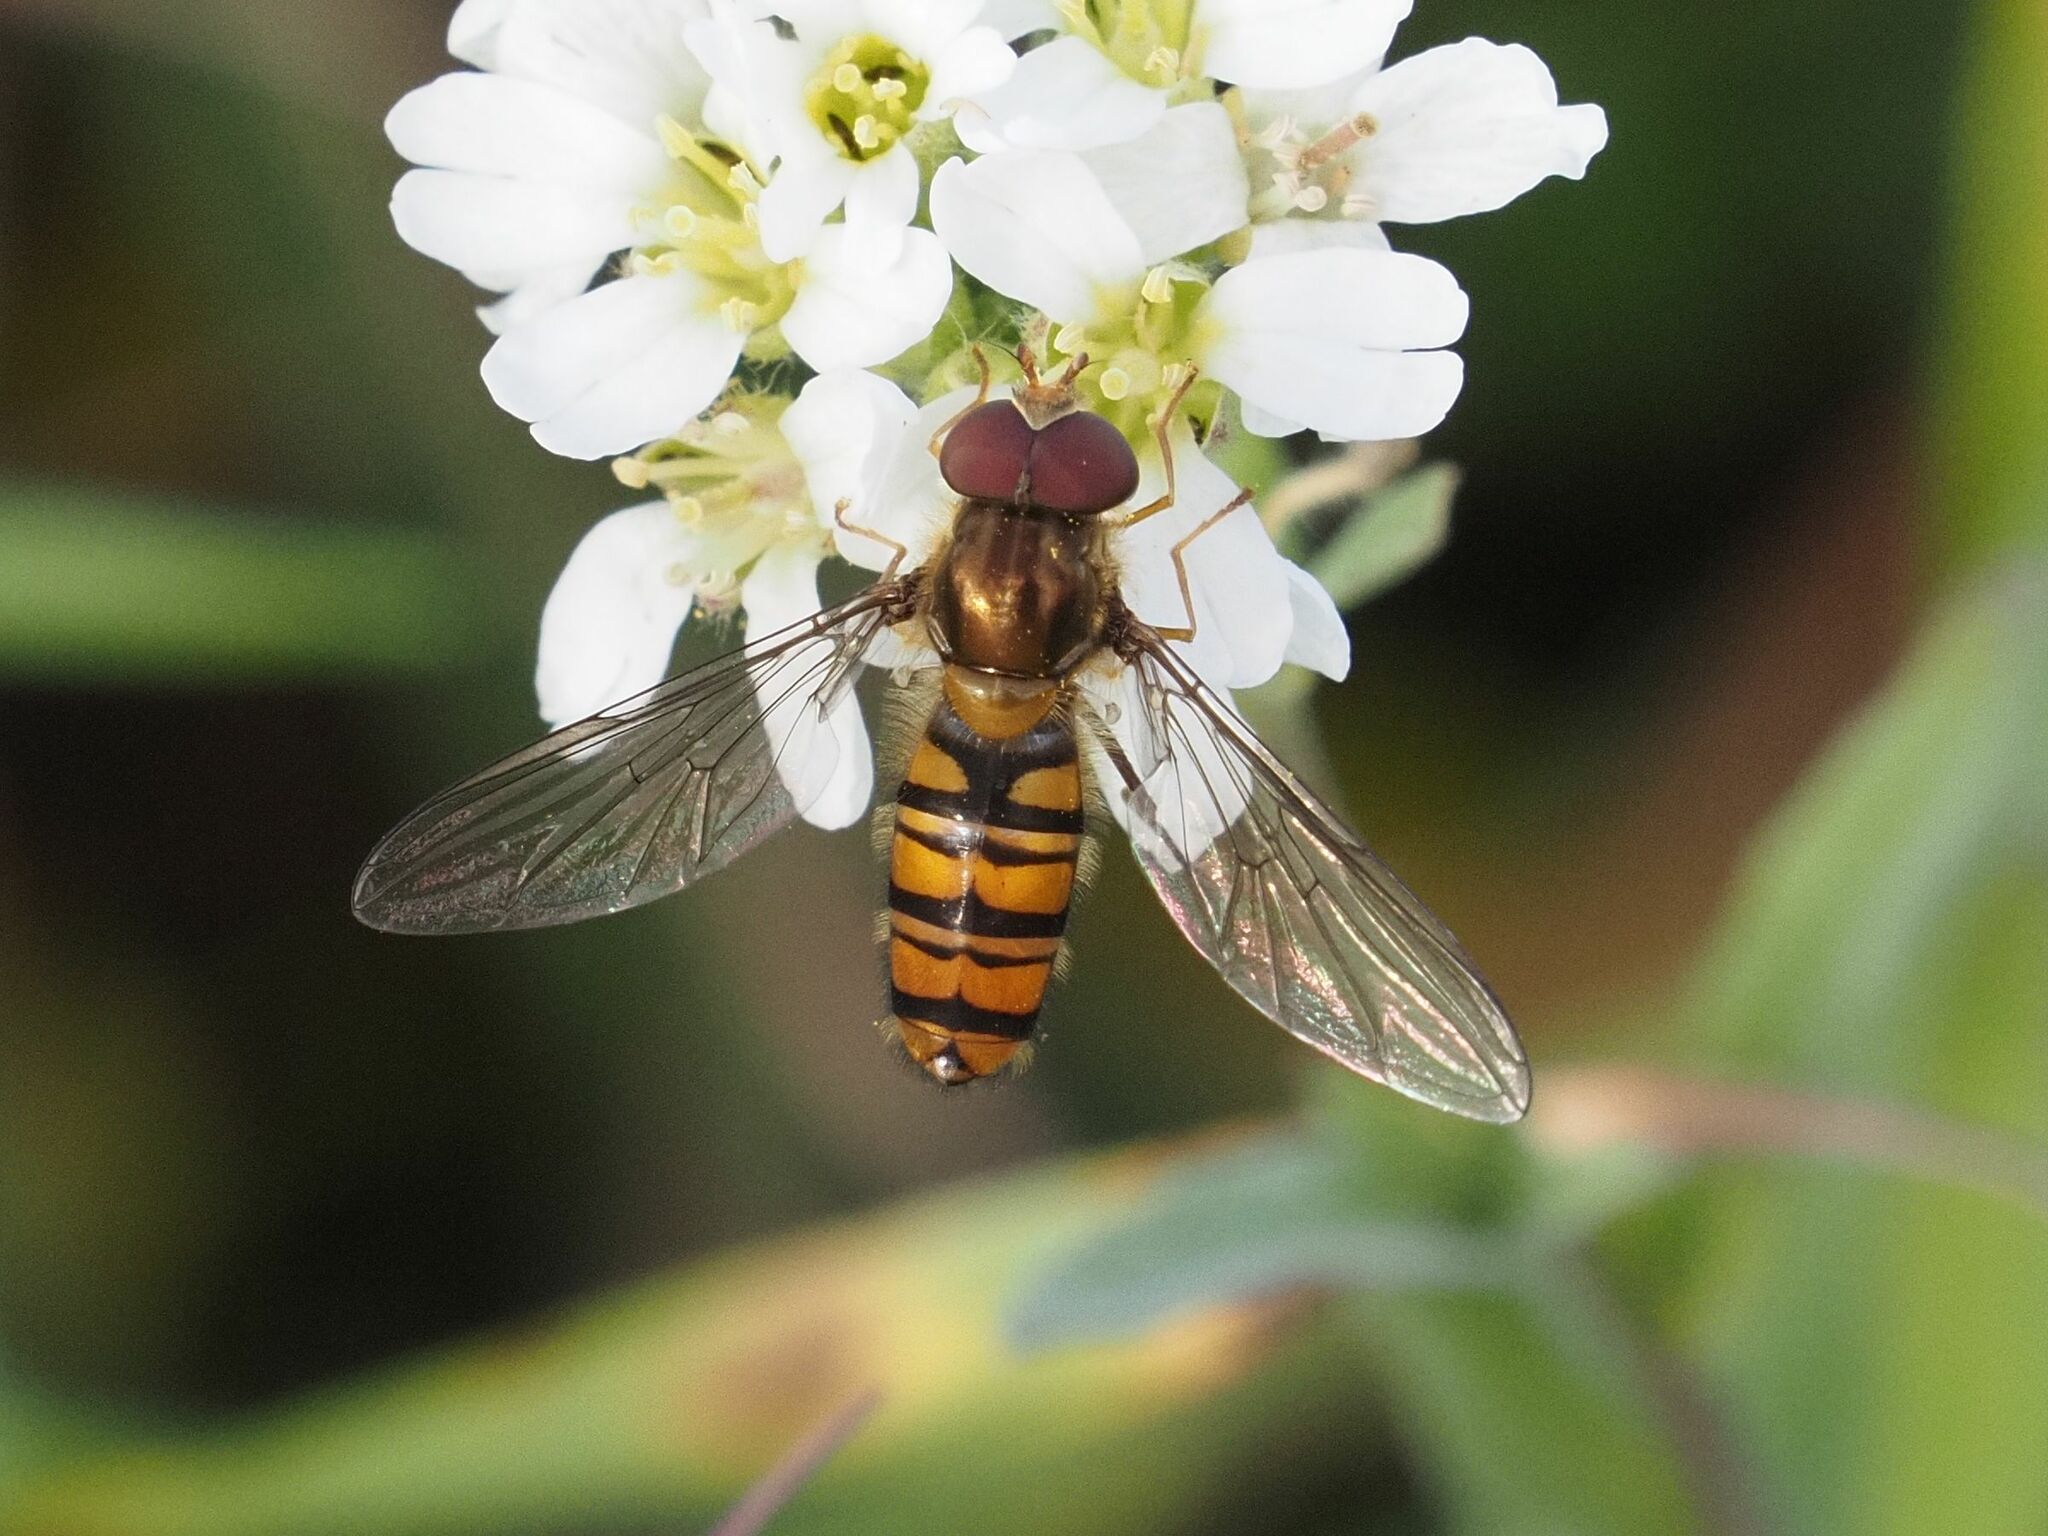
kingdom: Animalia
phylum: Arthropoda
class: Insecta
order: Diptera
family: Syrphidae
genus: Episyrphus
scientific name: Episyrphus balteatus
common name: Marmalade hoverfly
